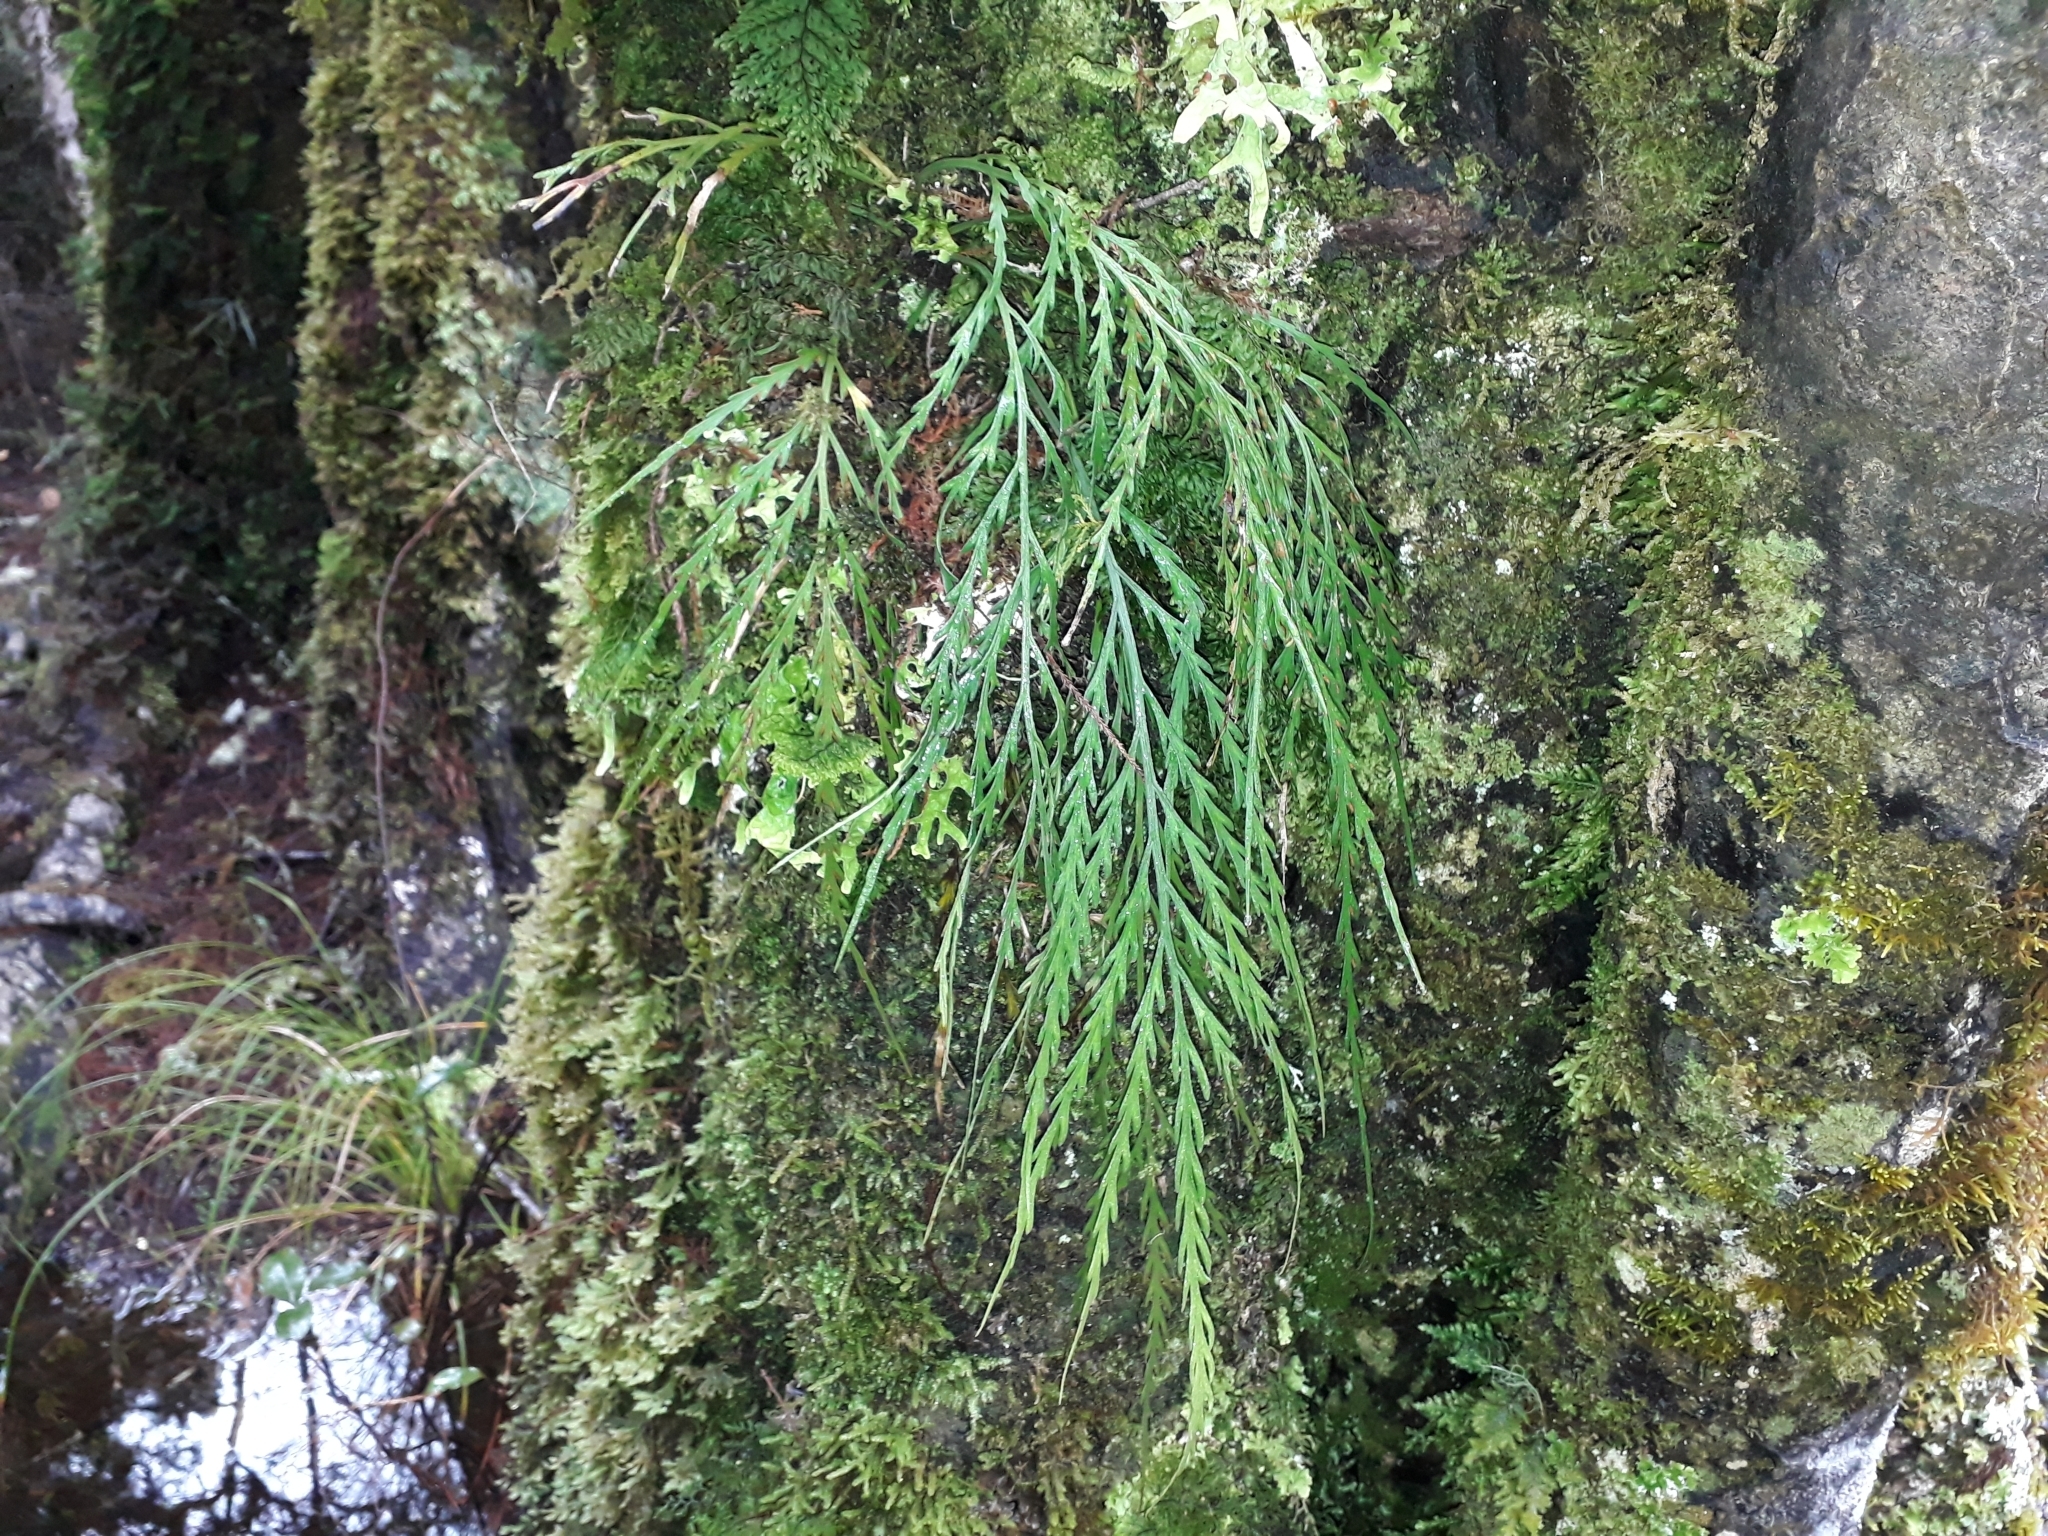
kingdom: Plantae
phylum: Tracheophyta
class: Polypodiopsida
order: Polypodiales
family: Aspleniaceae
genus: Asplenium
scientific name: Asplenium flaccidum
